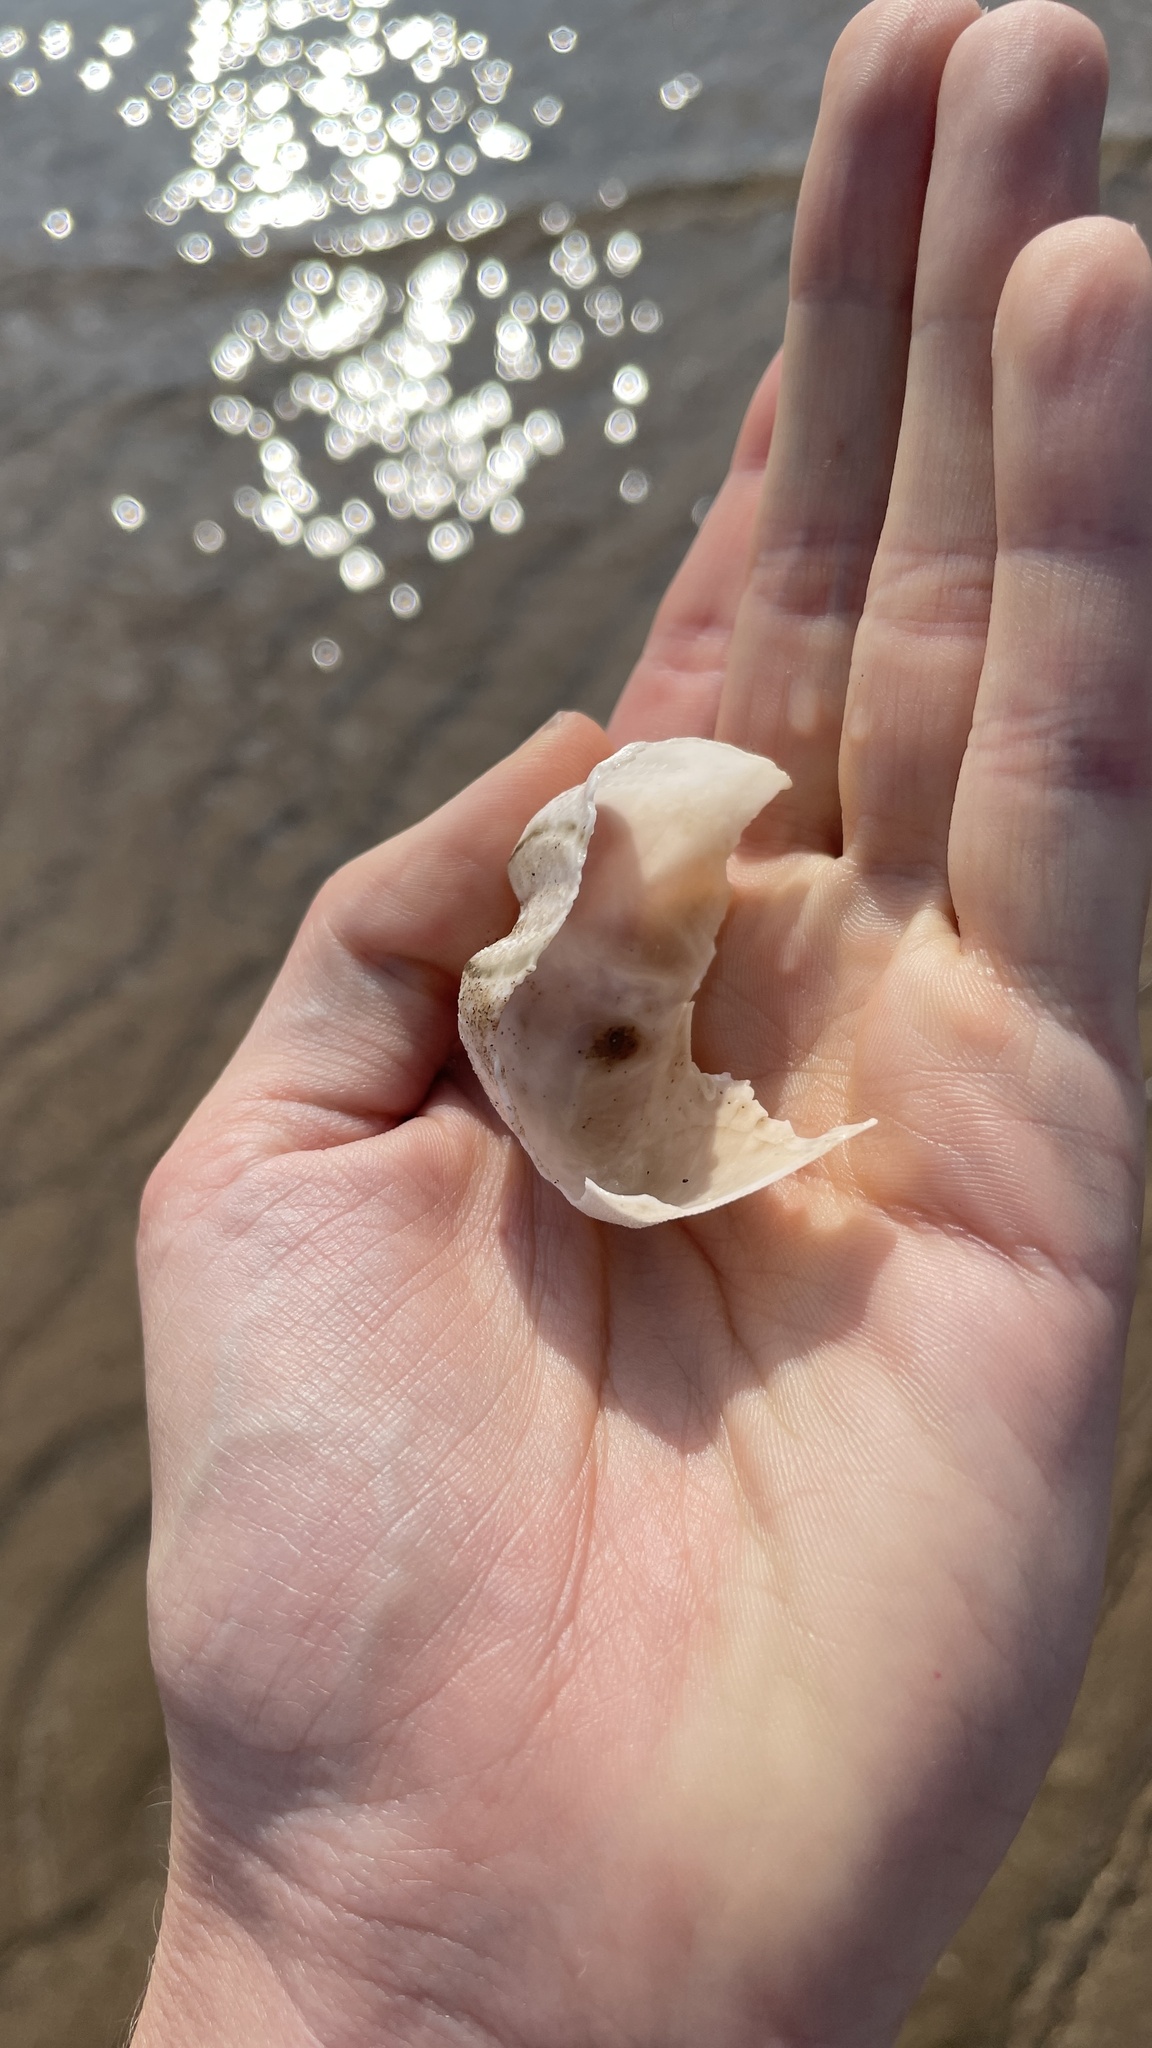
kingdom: Animalia
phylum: Echinodermata
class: Echinoidea
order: Spatangoida
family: Loveniidae
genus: Echinocardium
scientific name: Echinocardium cordatum
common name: Heart-urchin
